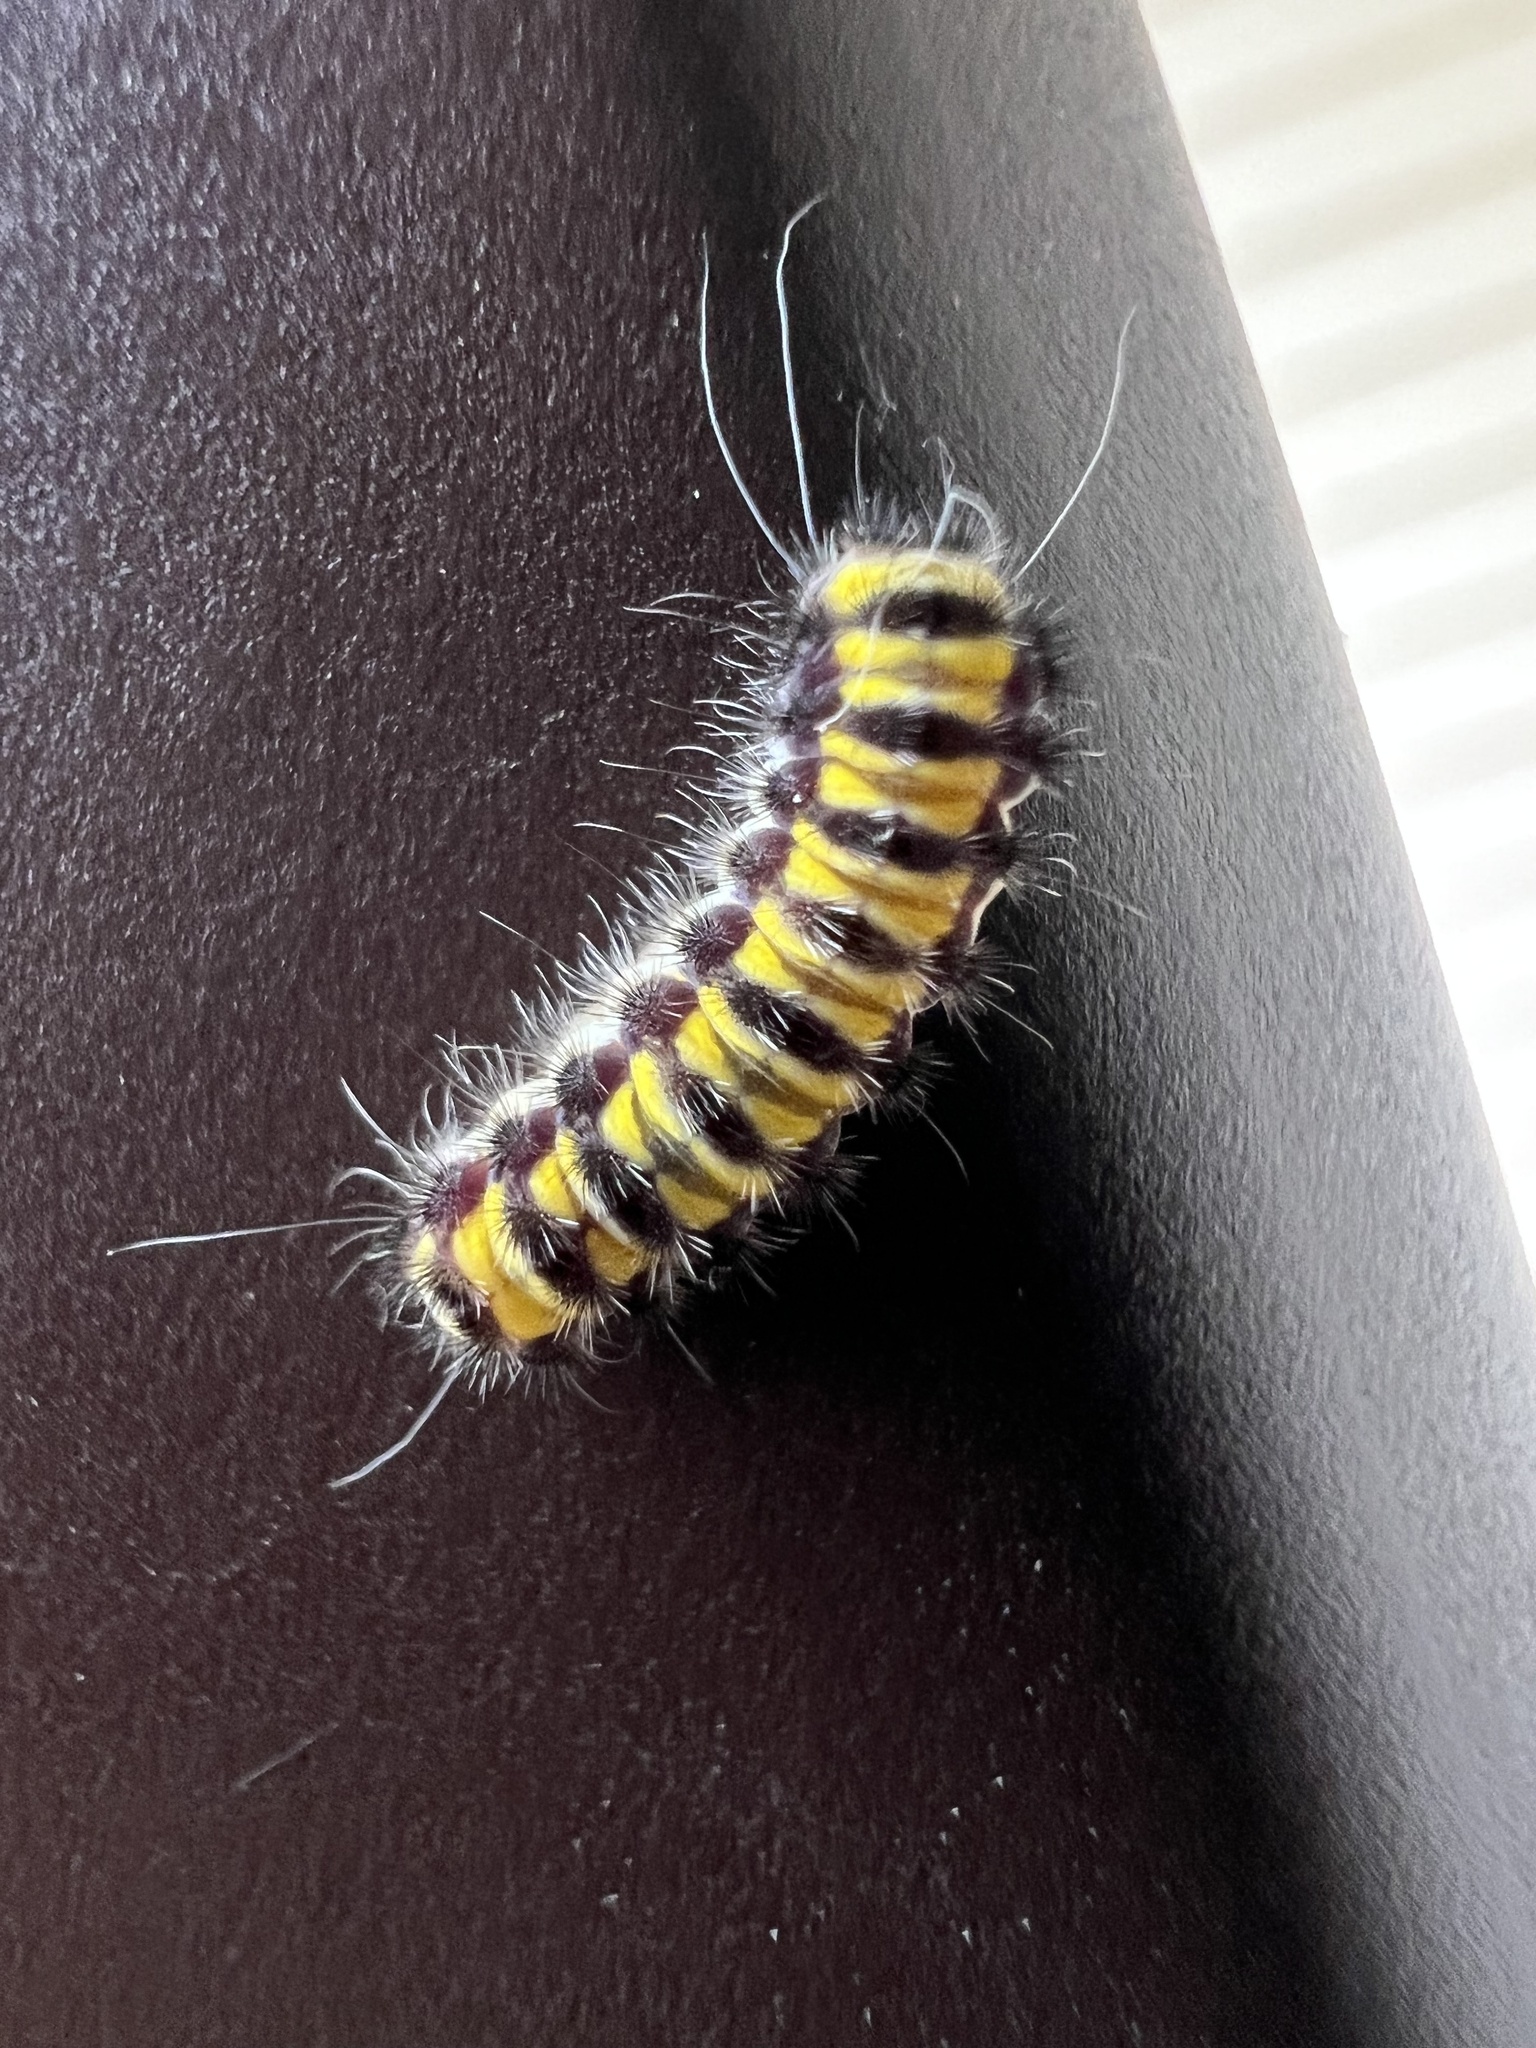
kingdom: Animalia
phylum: Arthropoda
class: Insecta
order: Lepidoptera
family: Zygaenidae
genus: Harrisina
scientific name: Harrisina americana
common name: Grapeleaf skeletonizer moth
